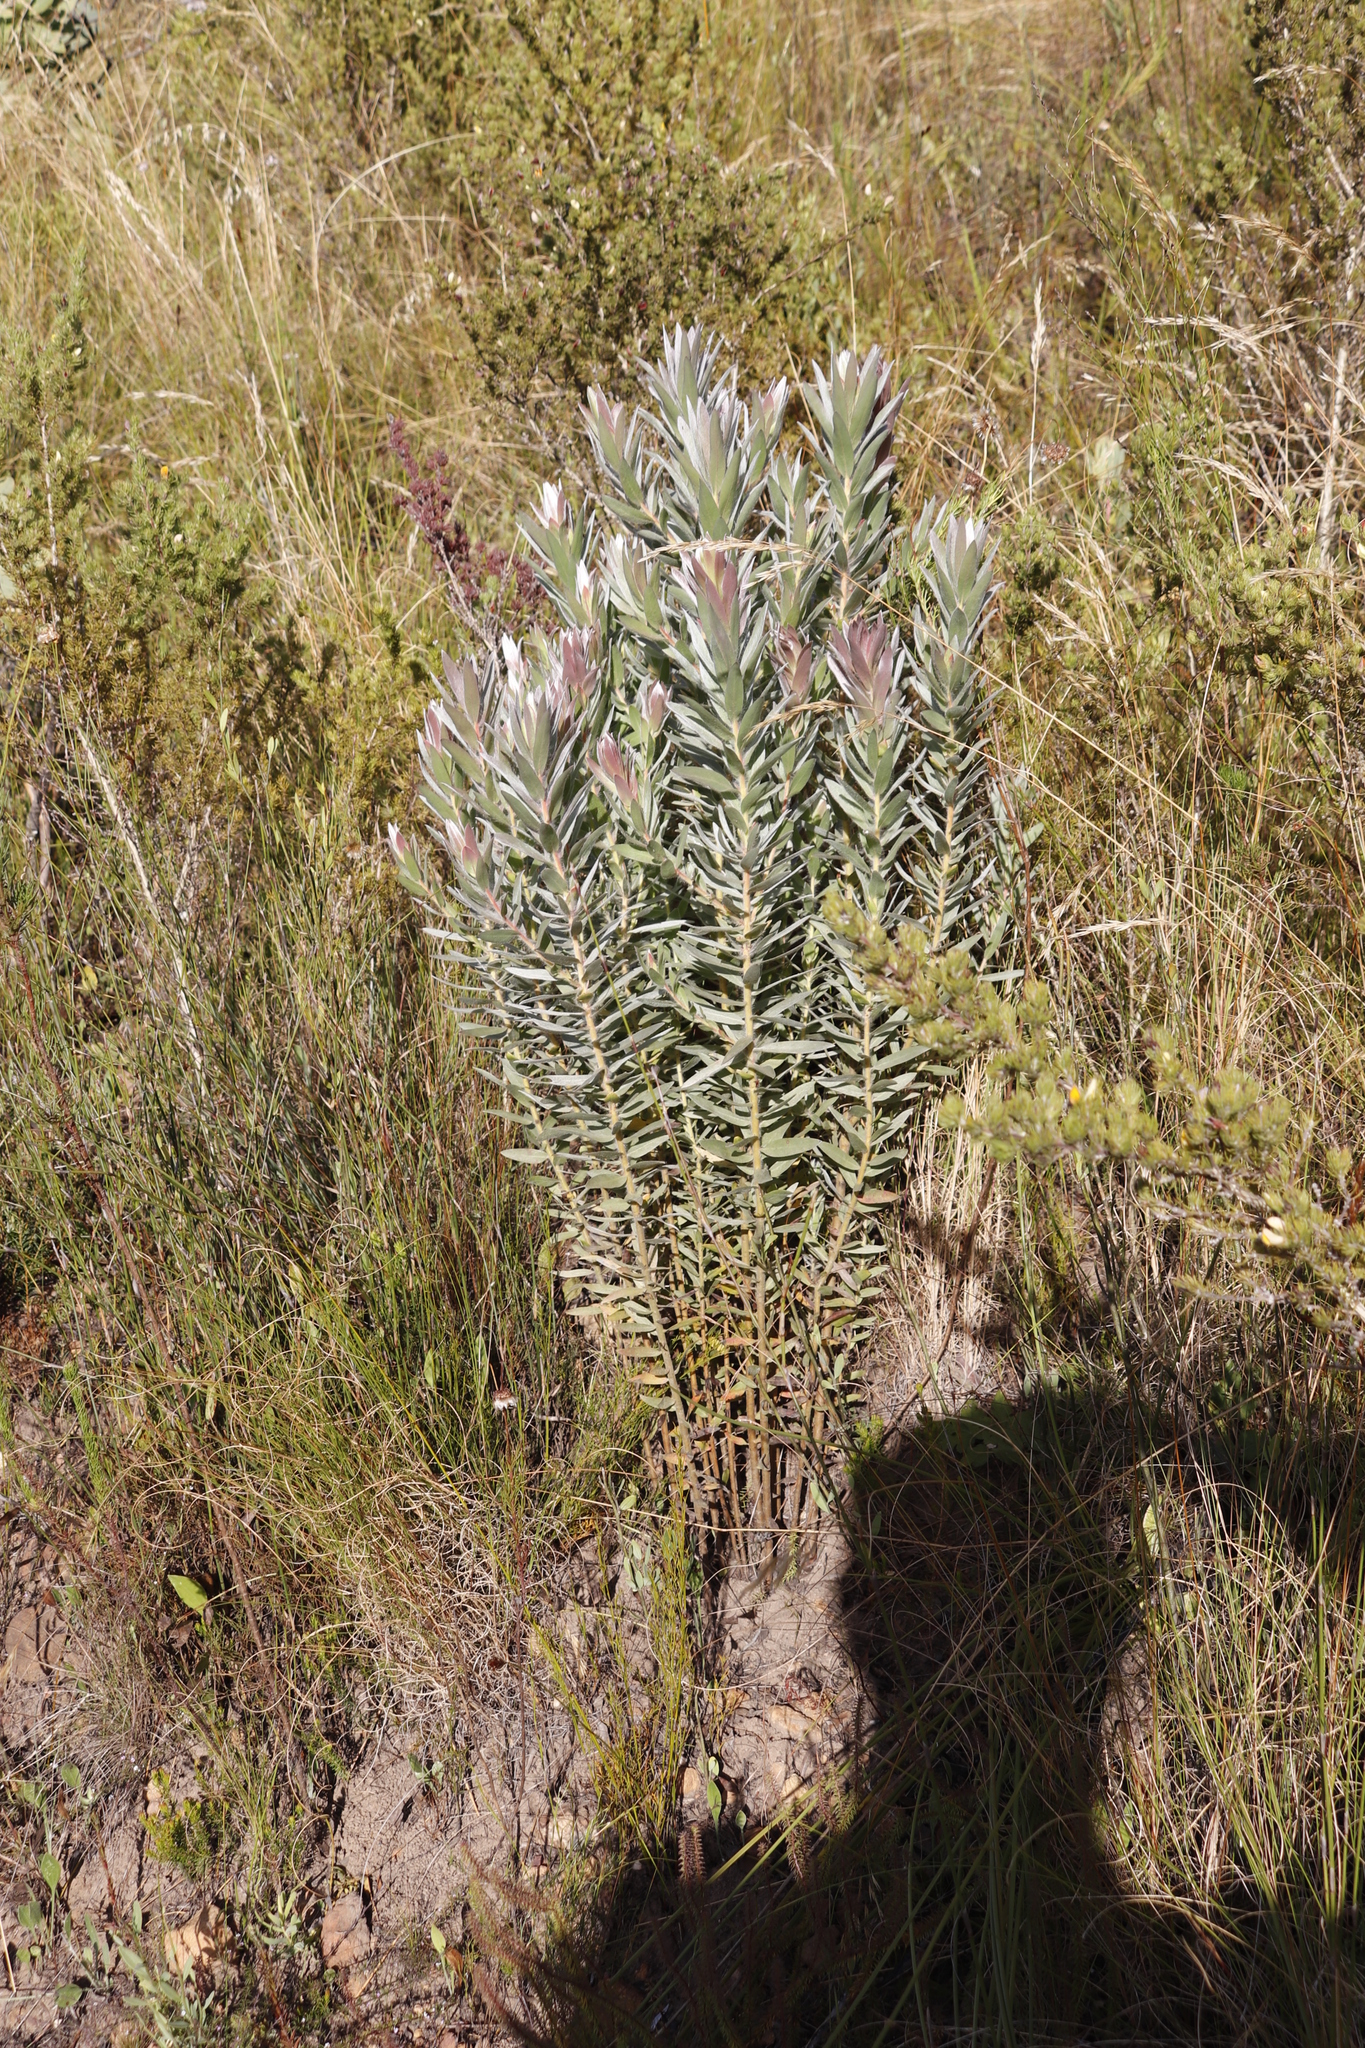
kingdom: Plantae
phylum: Tracheophyta
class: Magnoliopsida
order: Proteales
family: Proteaceae
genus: Protea
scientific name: Protea coronata
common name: Green sugarbush
